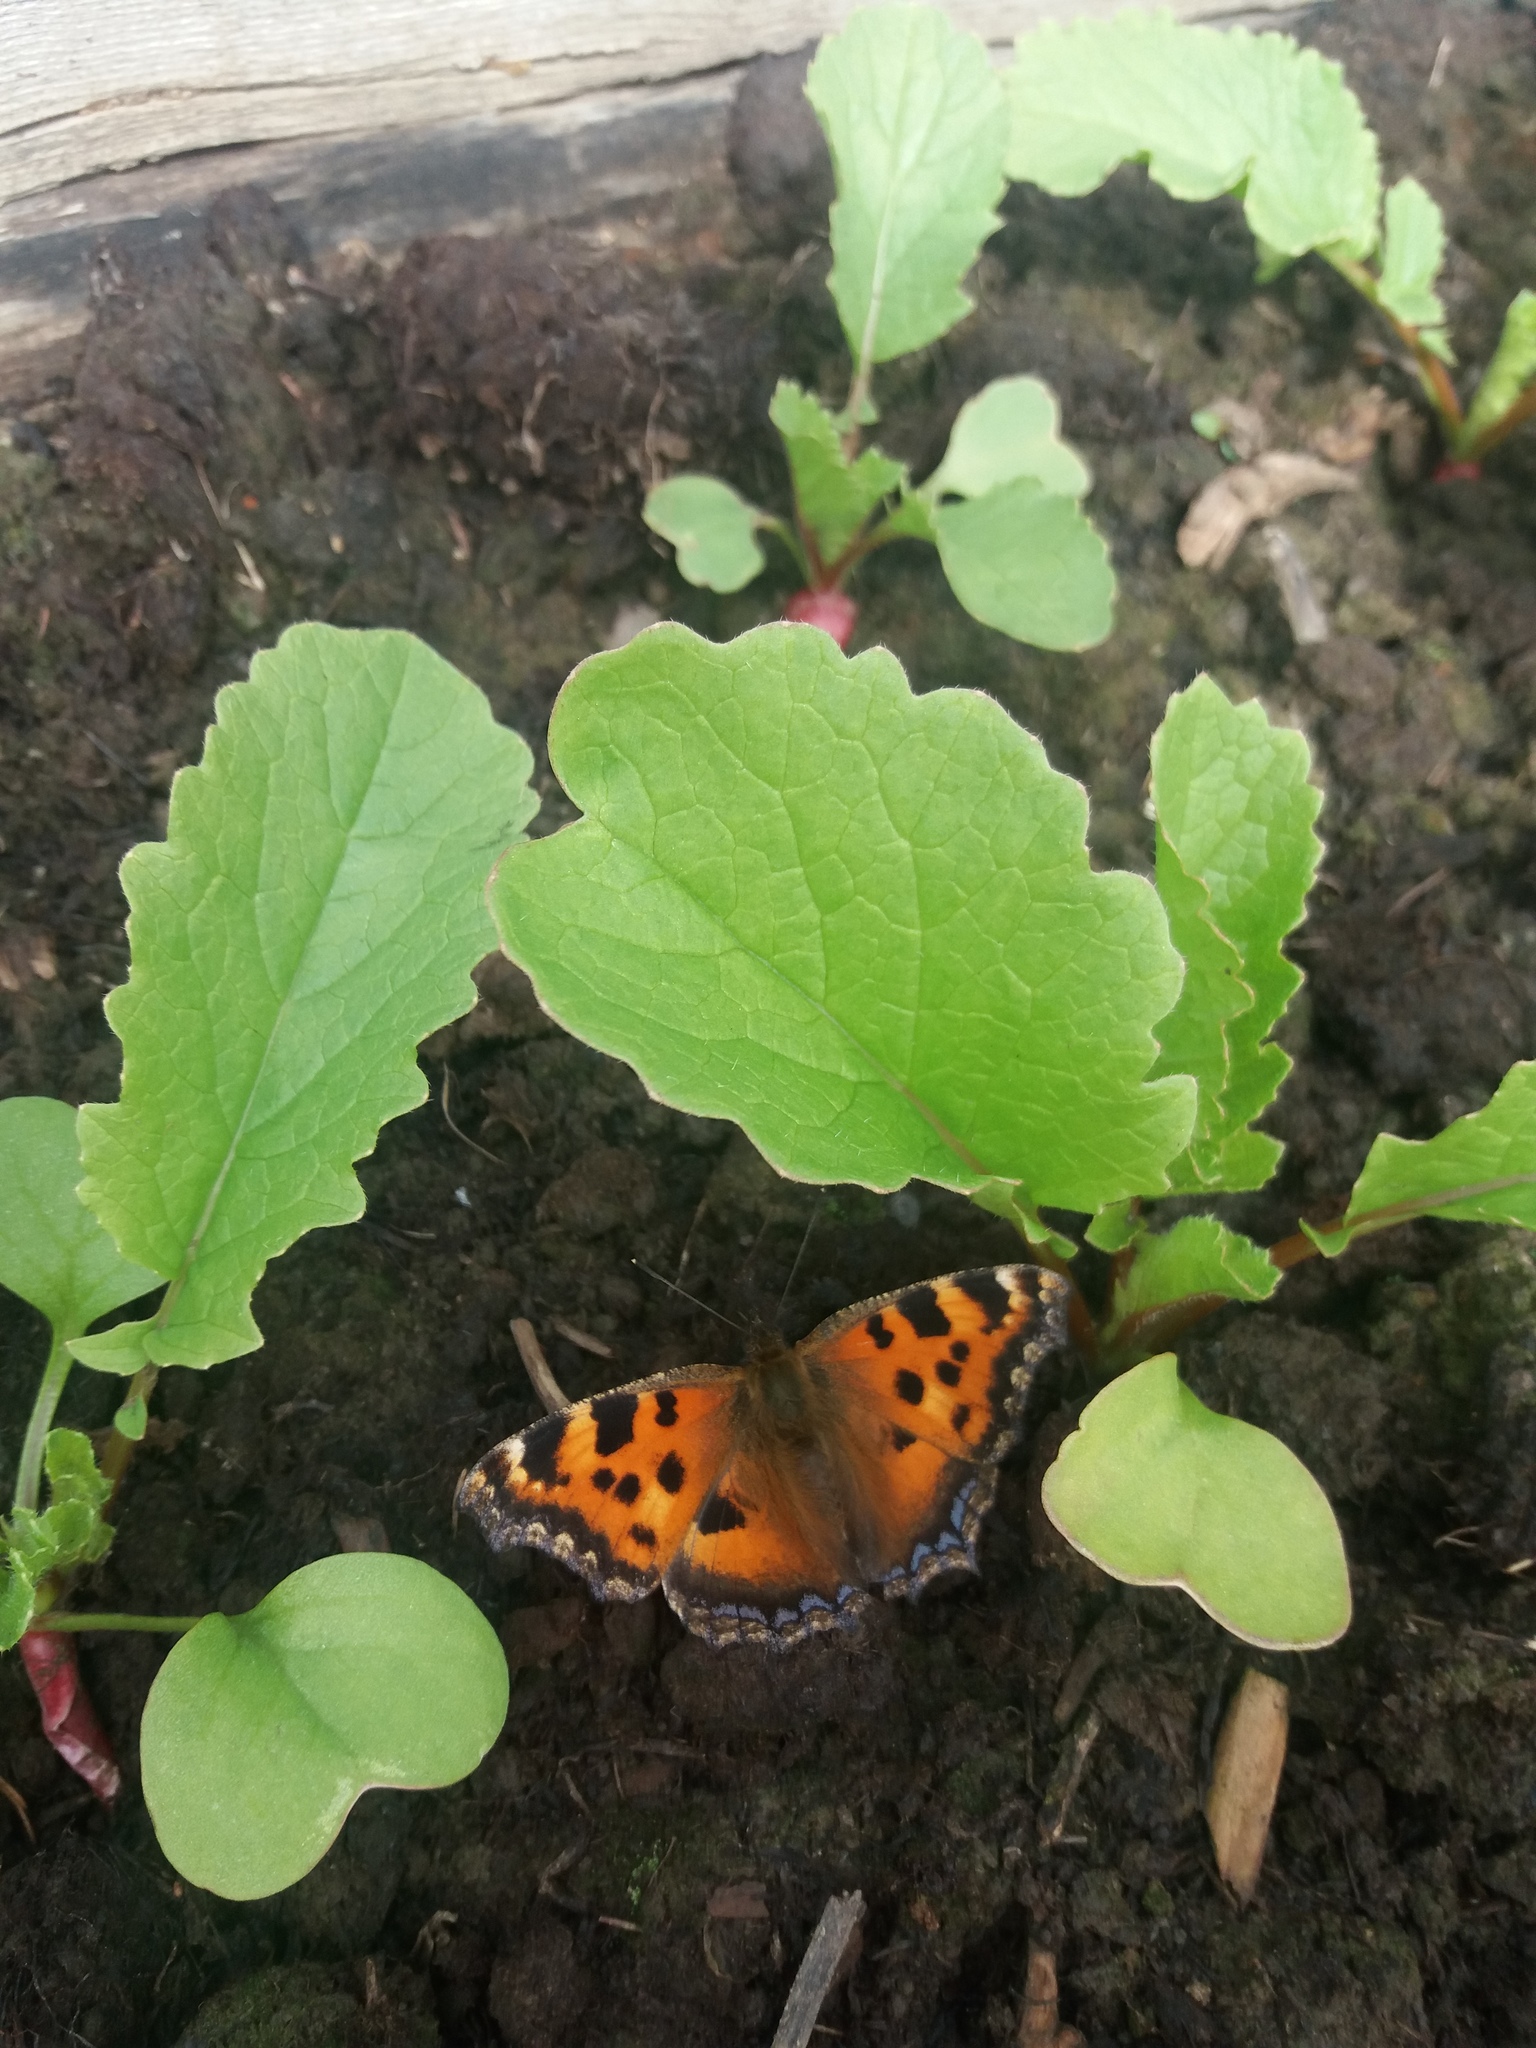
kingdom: Animalia
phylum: Arthropoda
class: Insecta
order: Lepidoptera
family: Nymphalidae
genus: Nymphalis
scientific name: Nymphalis xanthomelas
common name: Scarce tortoiseshell
